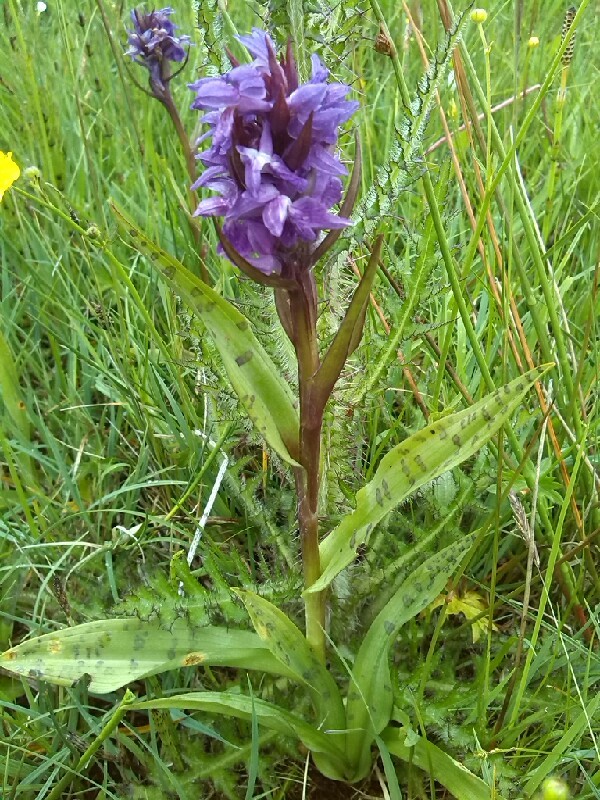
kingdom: Plantae
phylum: Tracheophyta
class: Liliopsida
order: Asparagales
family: Orchidaceae
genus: Dactylorhiza
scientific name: Dactylorhiza majalis
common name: Marsh orchid
